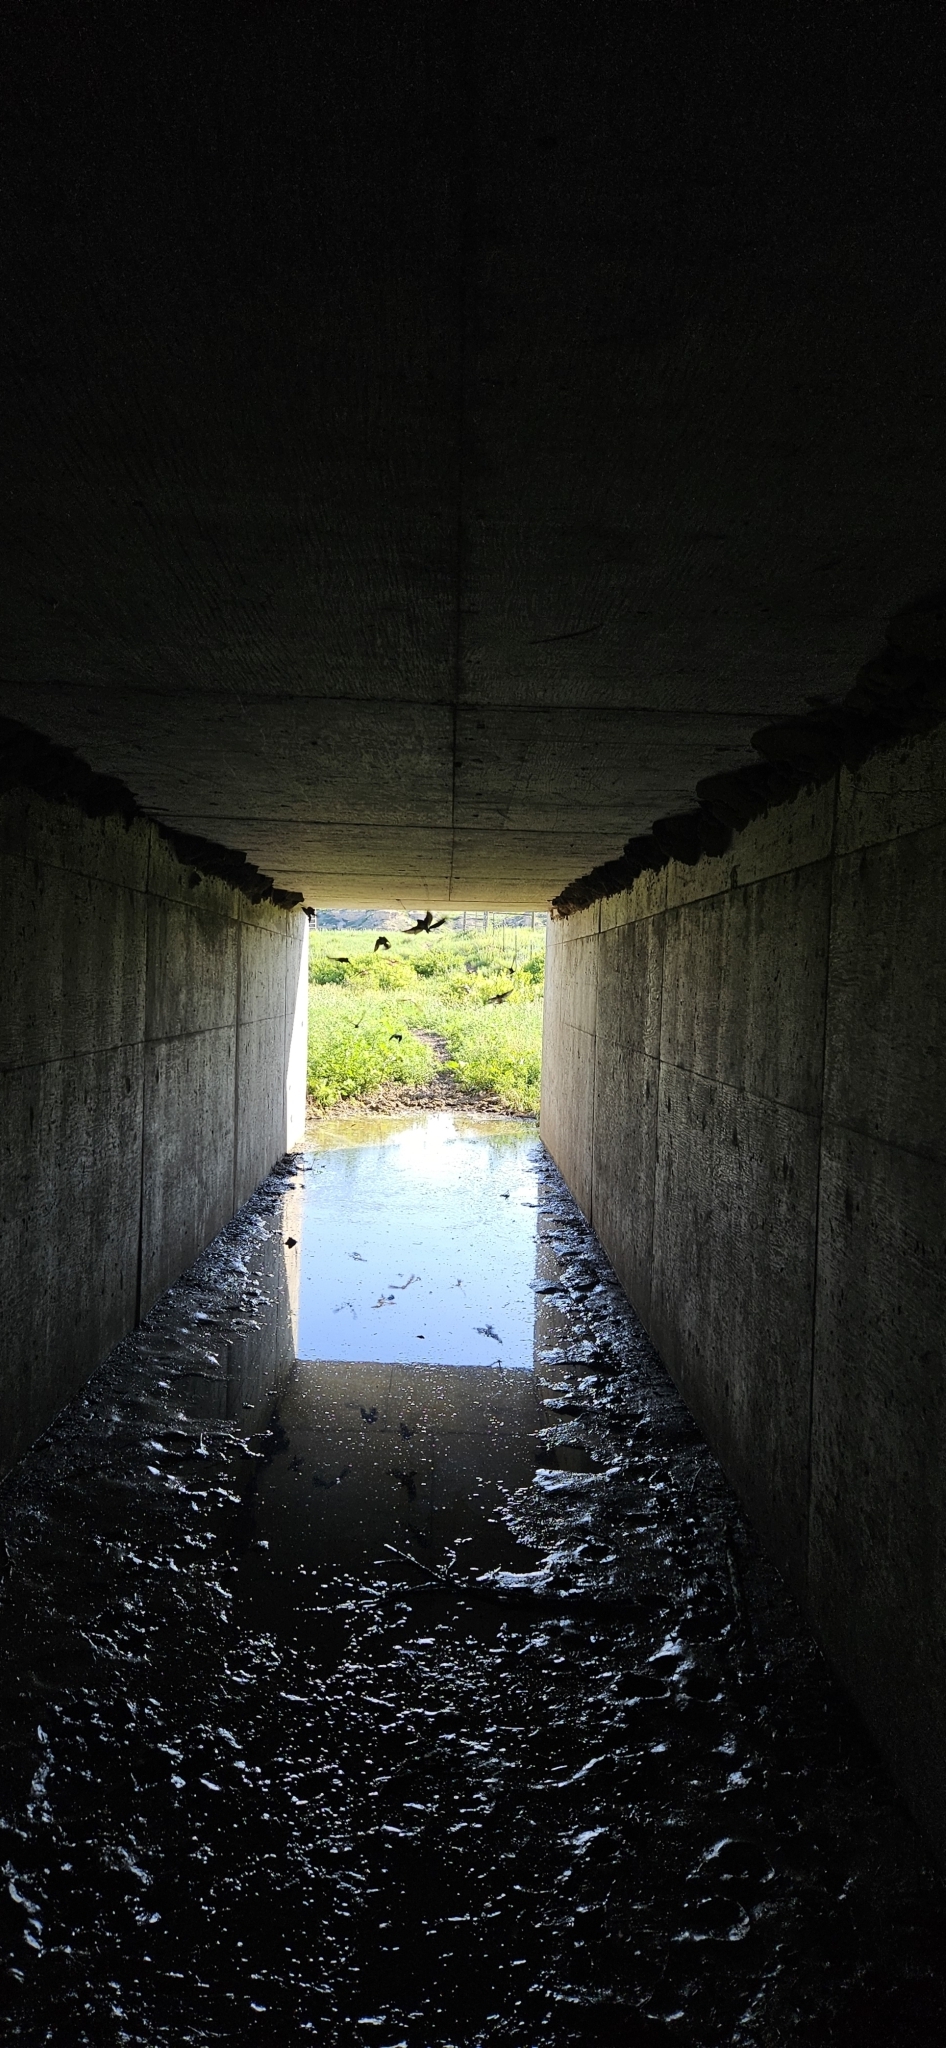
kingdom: Animalia
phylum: Chordata
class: Aves
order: Passeriformes
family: Hirundinidae
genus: Petrochelidon
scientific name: Petrochelidon pyrrhonota
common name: American cliff swallow
